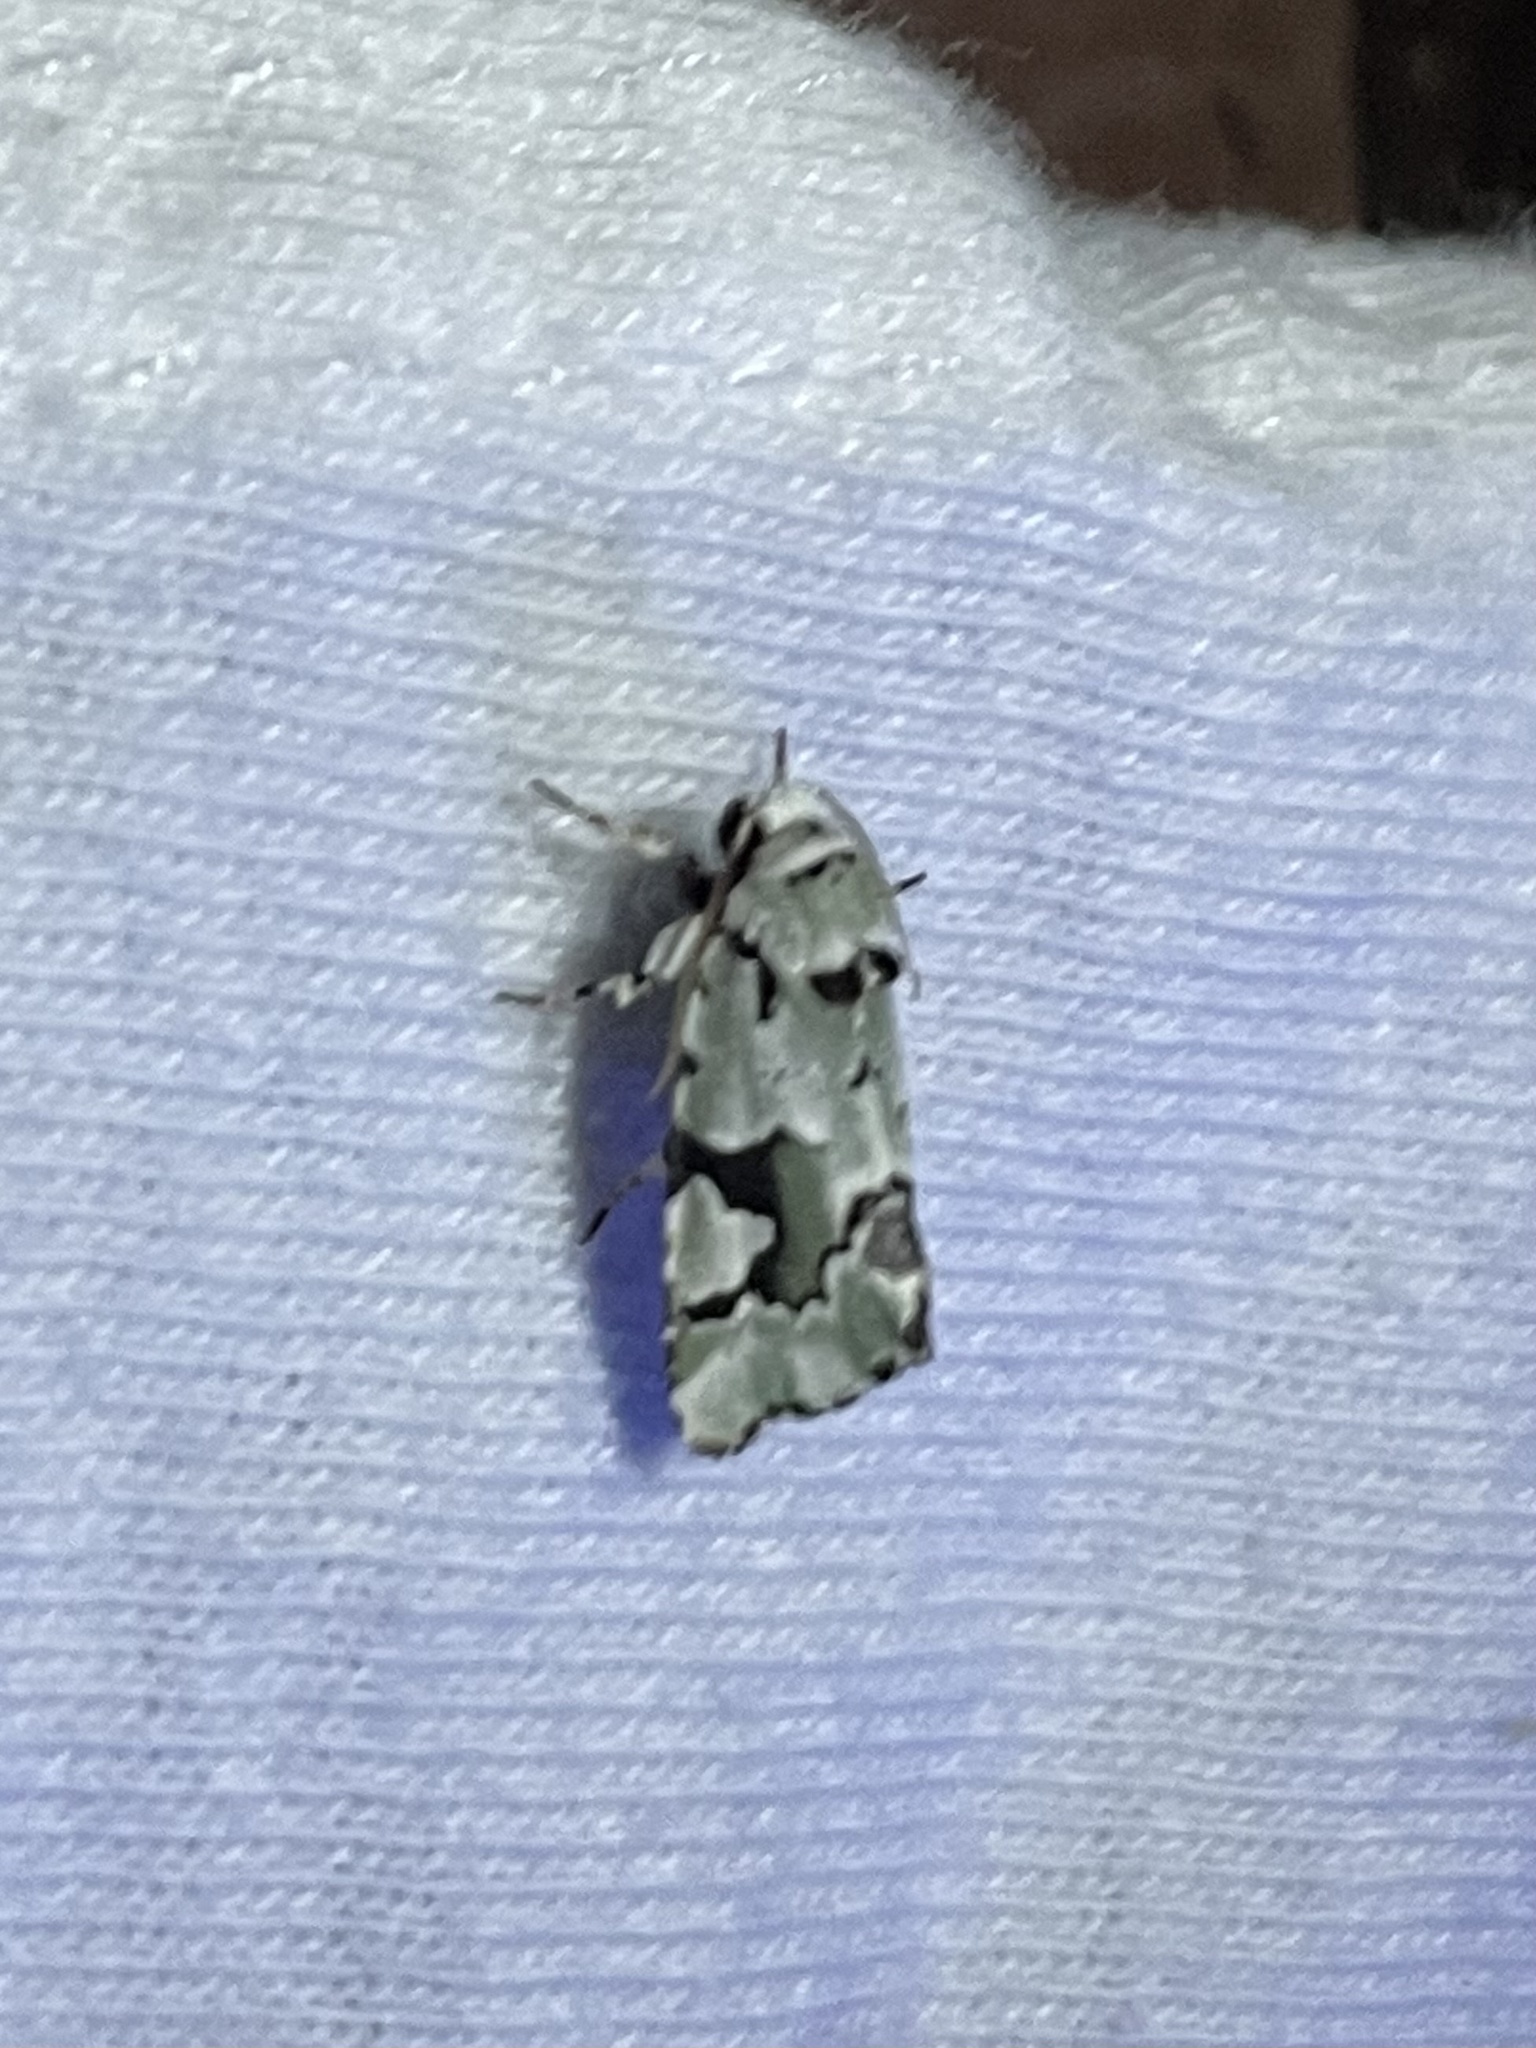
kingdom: Animalia
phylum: Arthropoda
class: Insecta
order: Lepidoptera
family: Noctuidae
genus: Emarginea
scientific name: Emarginea percara
